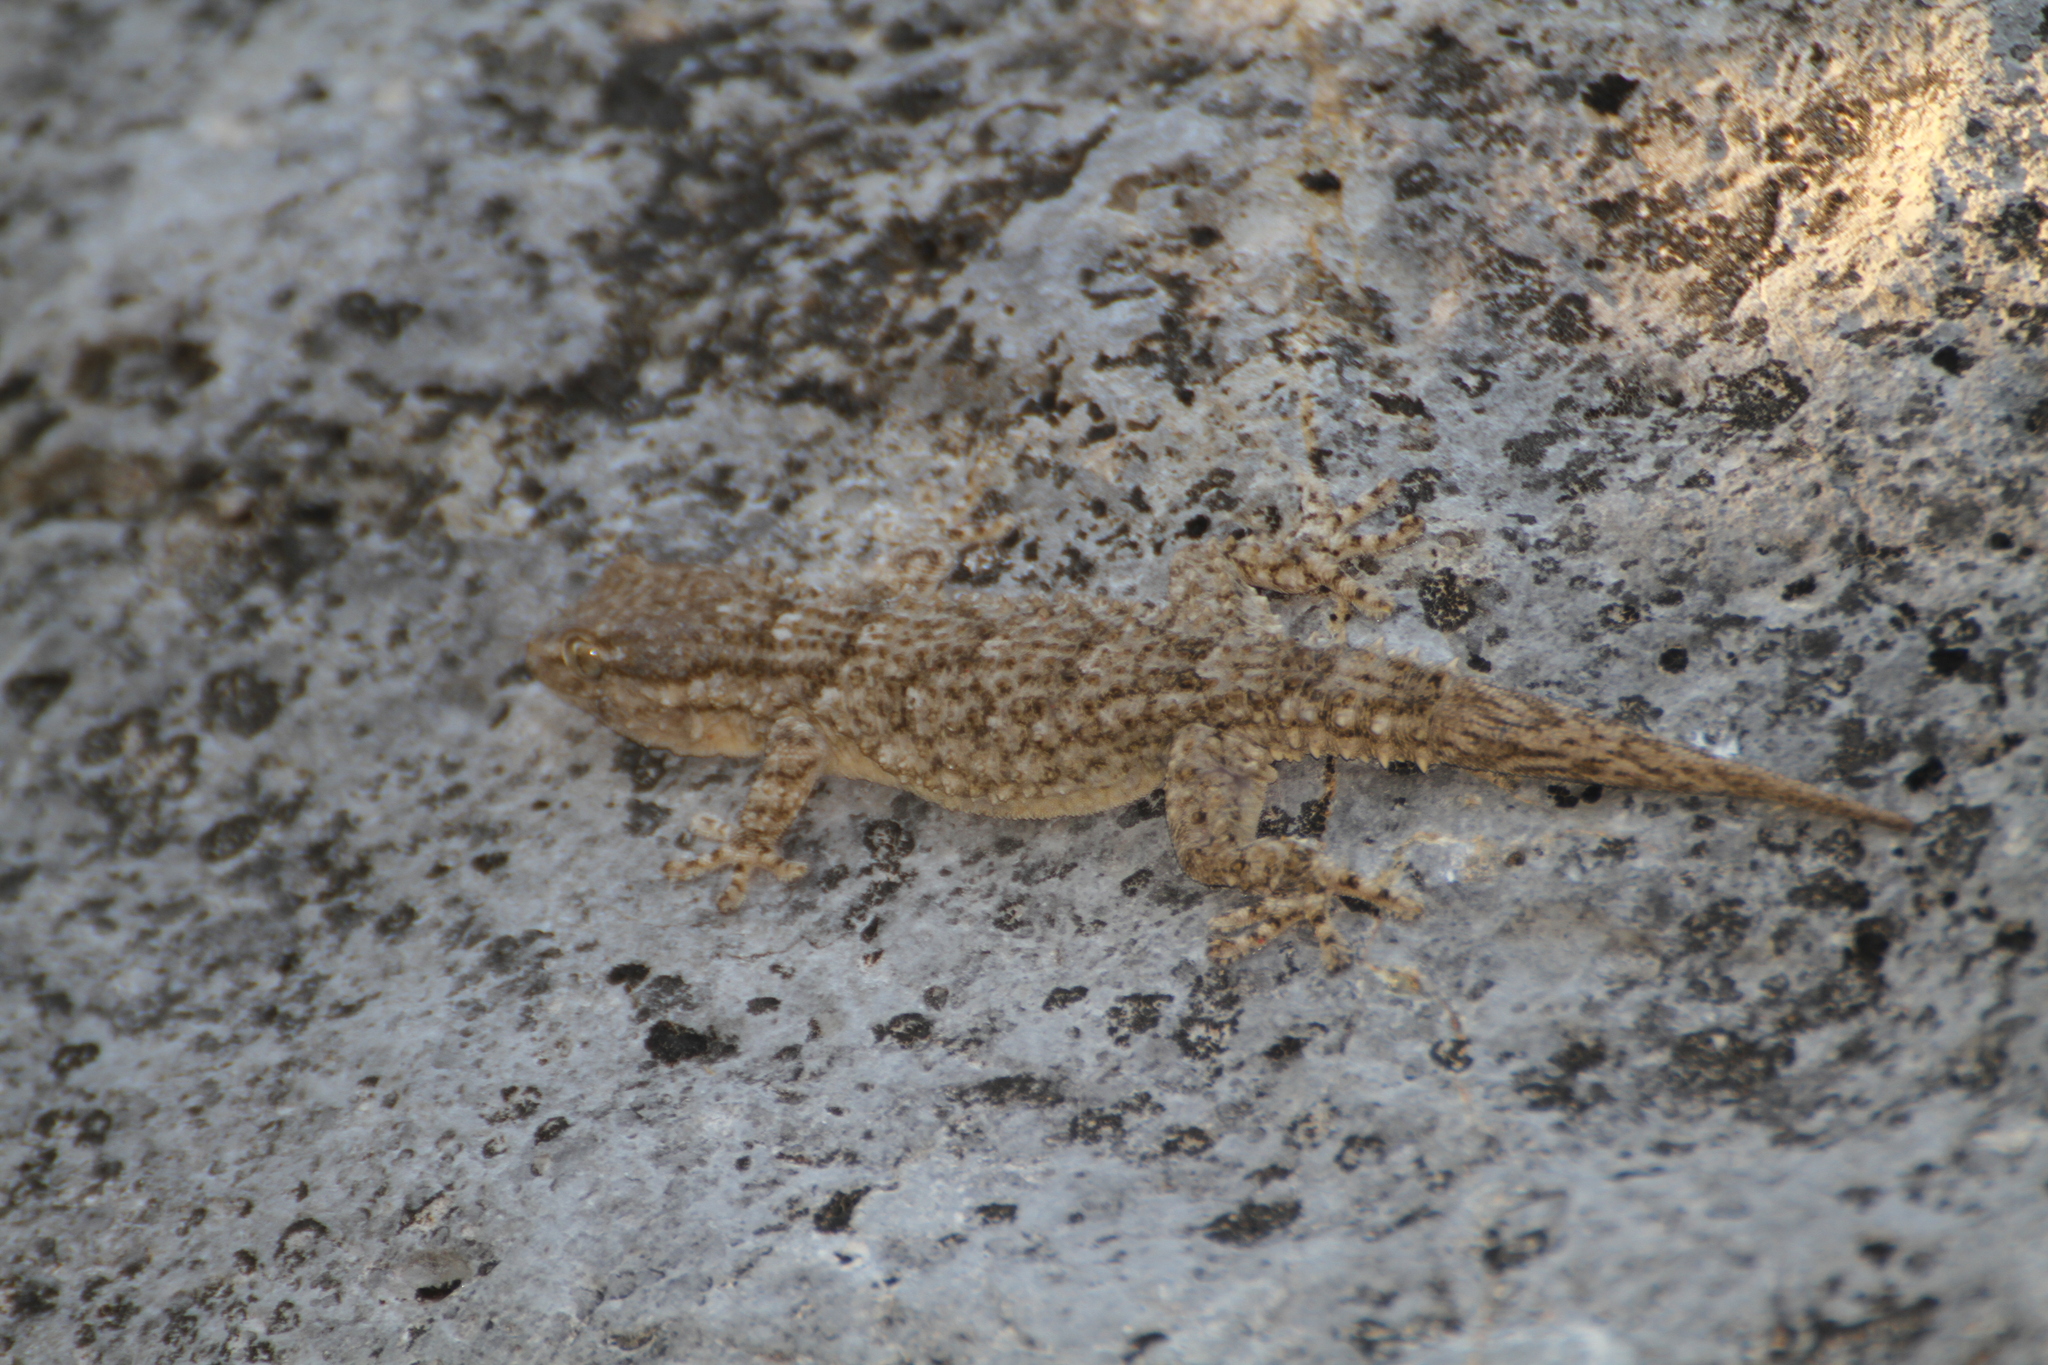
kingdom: Animalia
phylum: Chordata
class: Squamata
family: Phyllodactylidae
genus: Tarentola
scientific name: Tarentola mauritanica
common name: Moorish gecko
